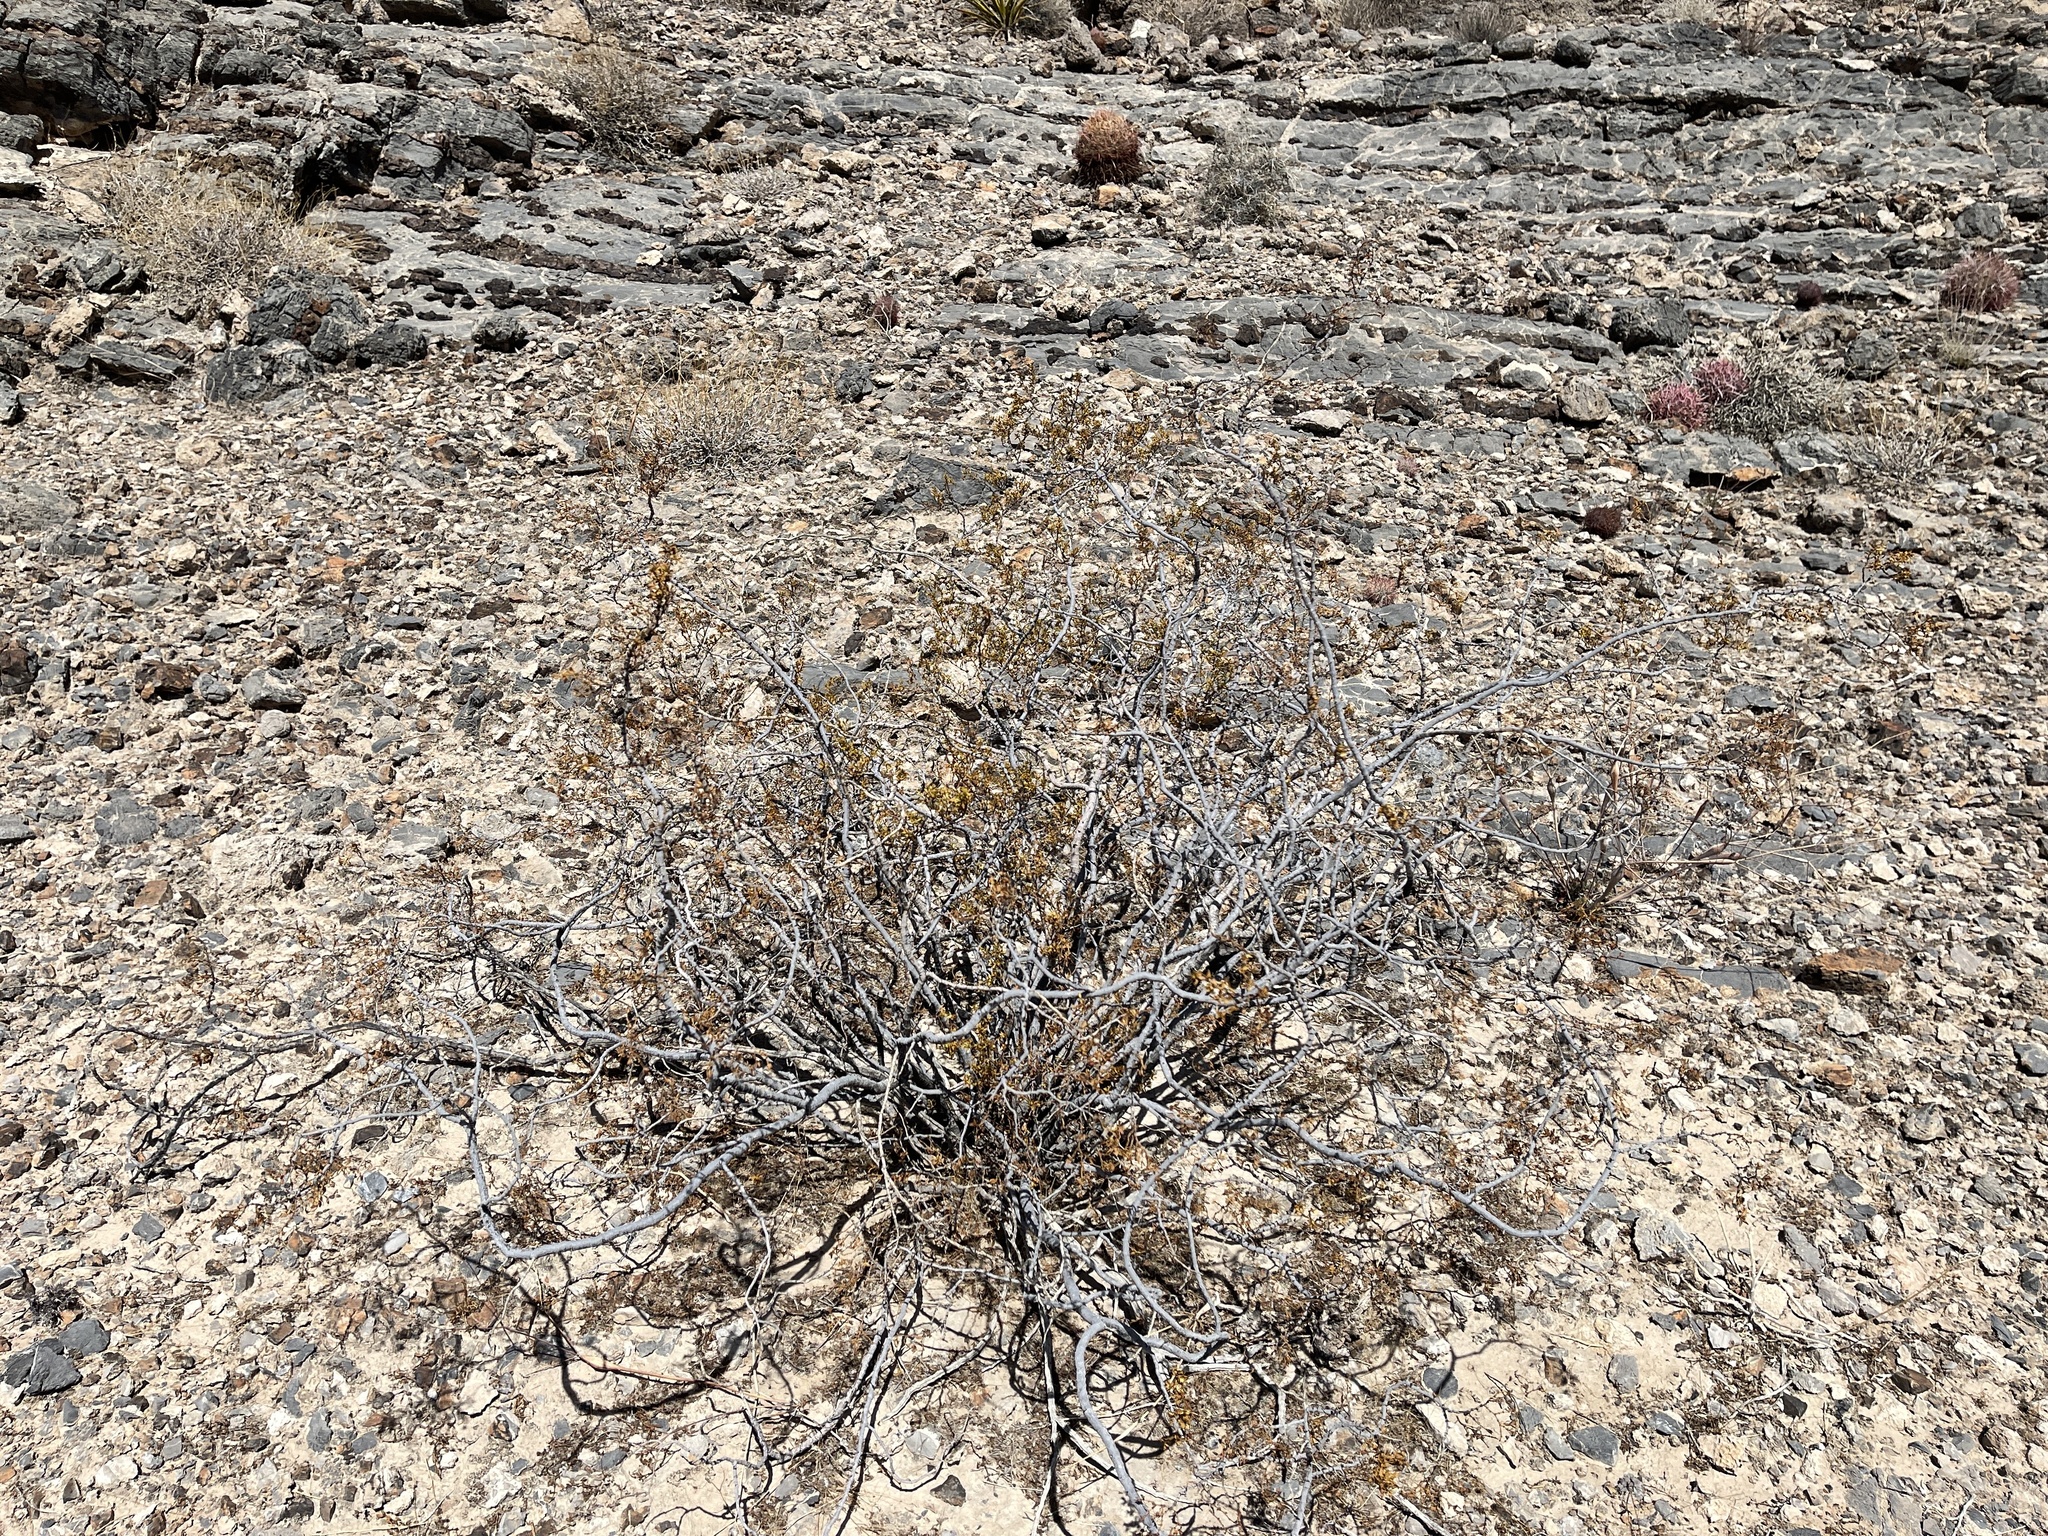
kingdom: Plantae
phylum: Tracheophyta
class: Magnoliopsida
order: Zygophyllales
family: Zygophyllaceae
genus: Larrea
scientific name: Larrea tridentata
